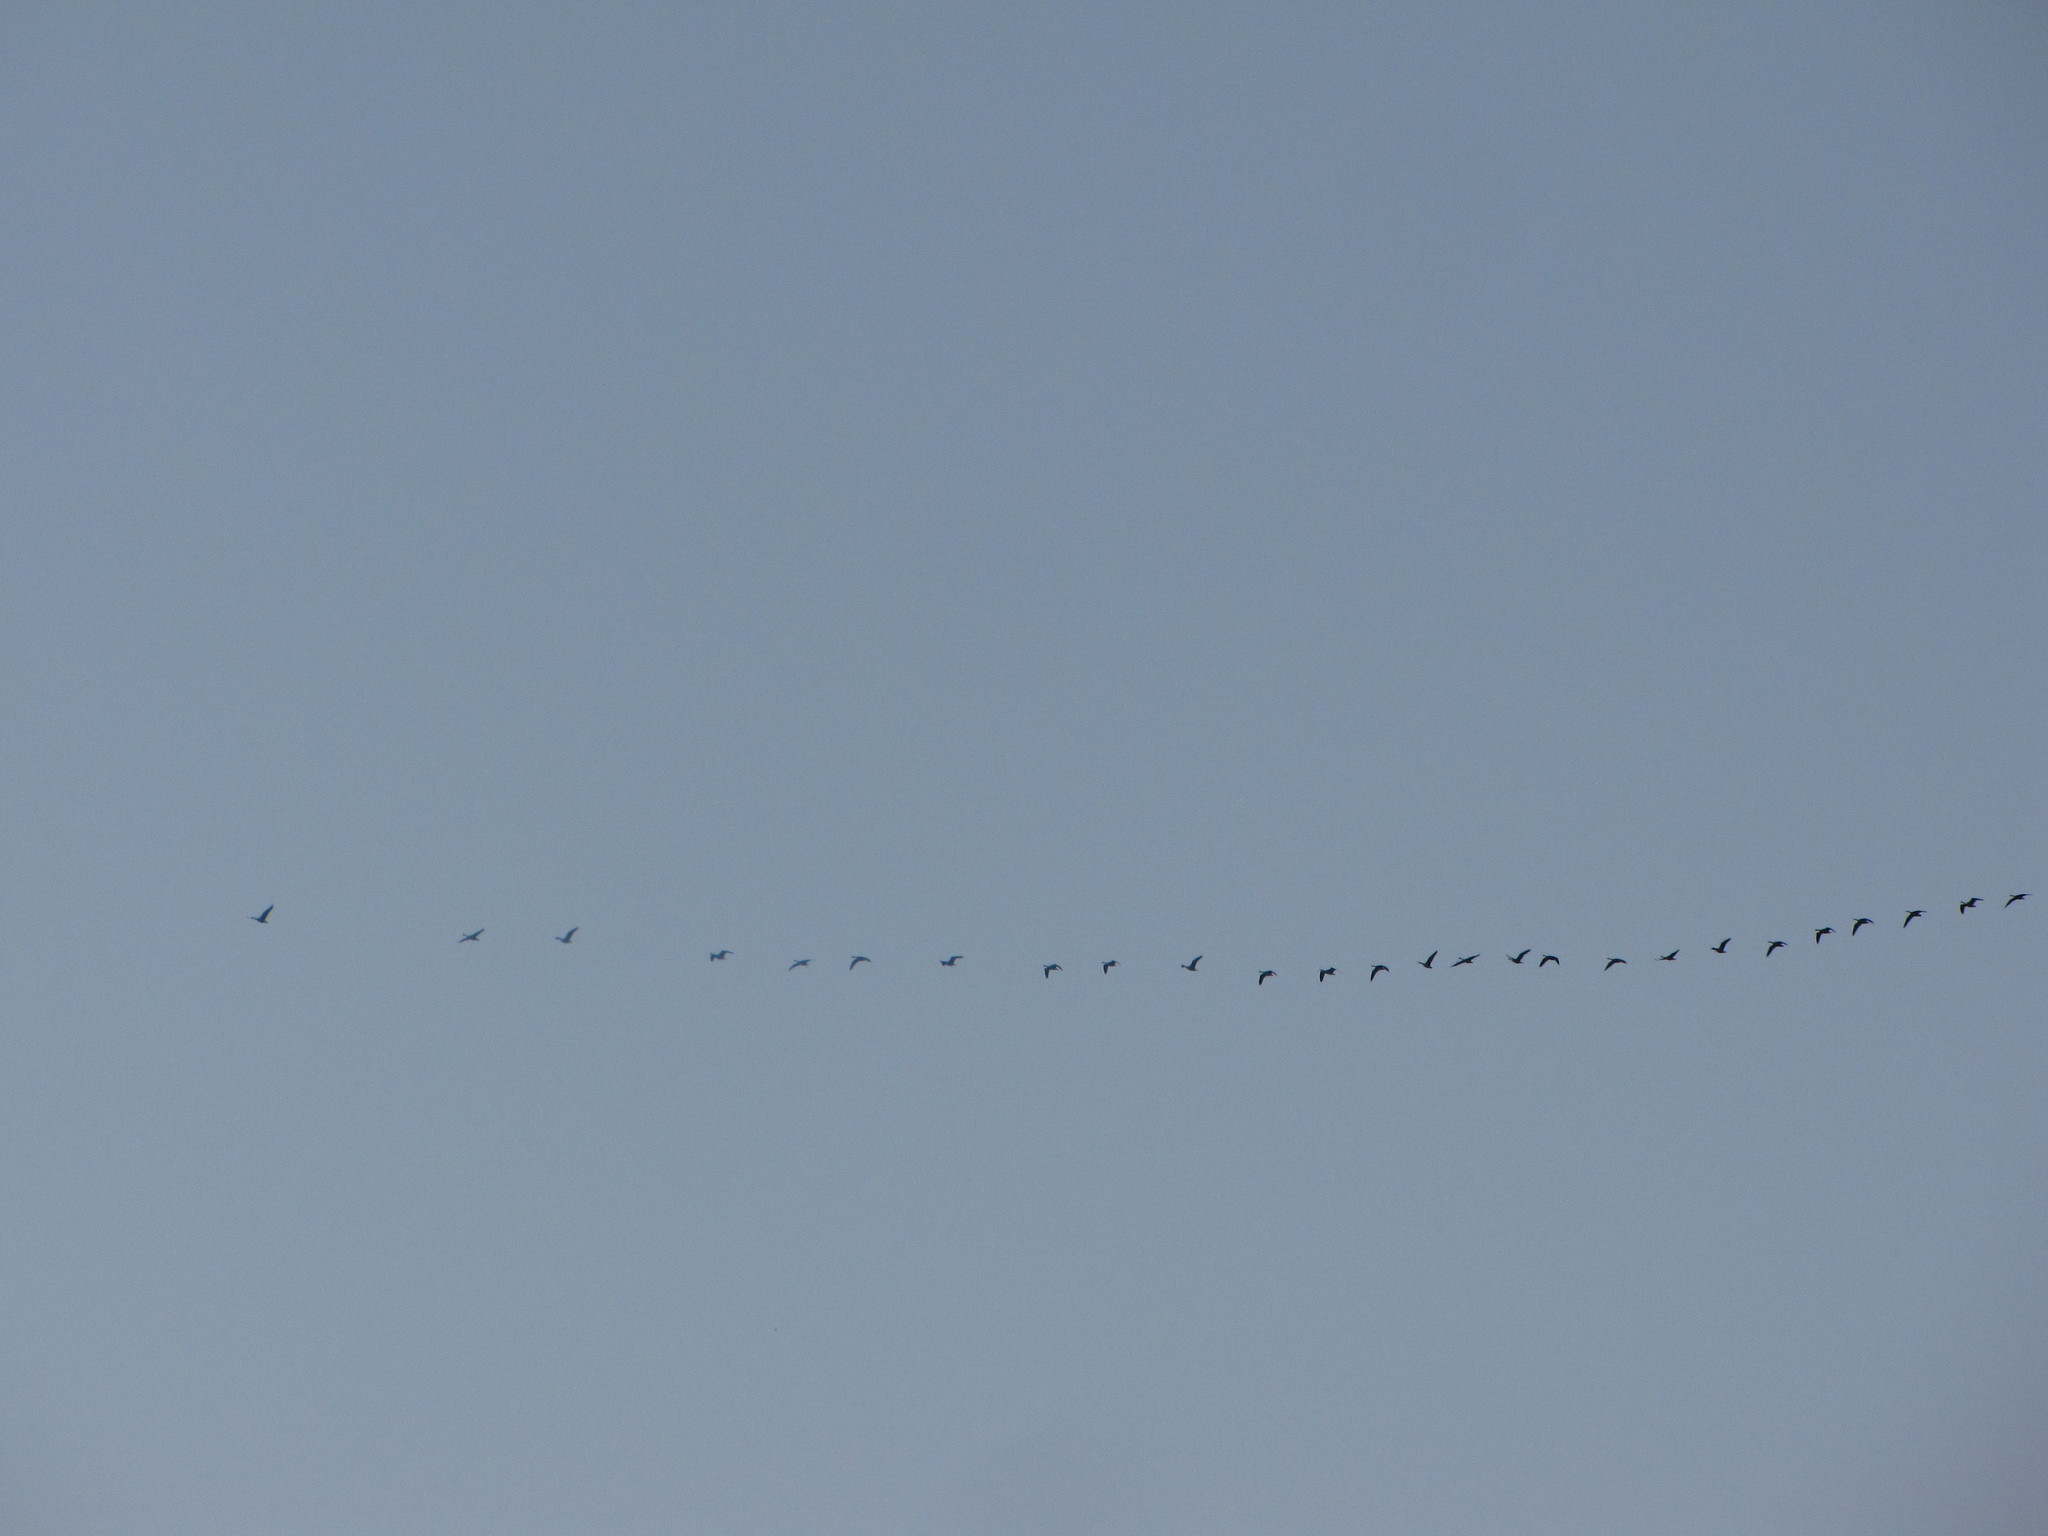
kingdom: Animalia
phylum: Chordata
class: Aves
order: Anseriformes
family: Anatidae
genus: Branta
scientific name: Branta canadensis
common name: Canada goose
